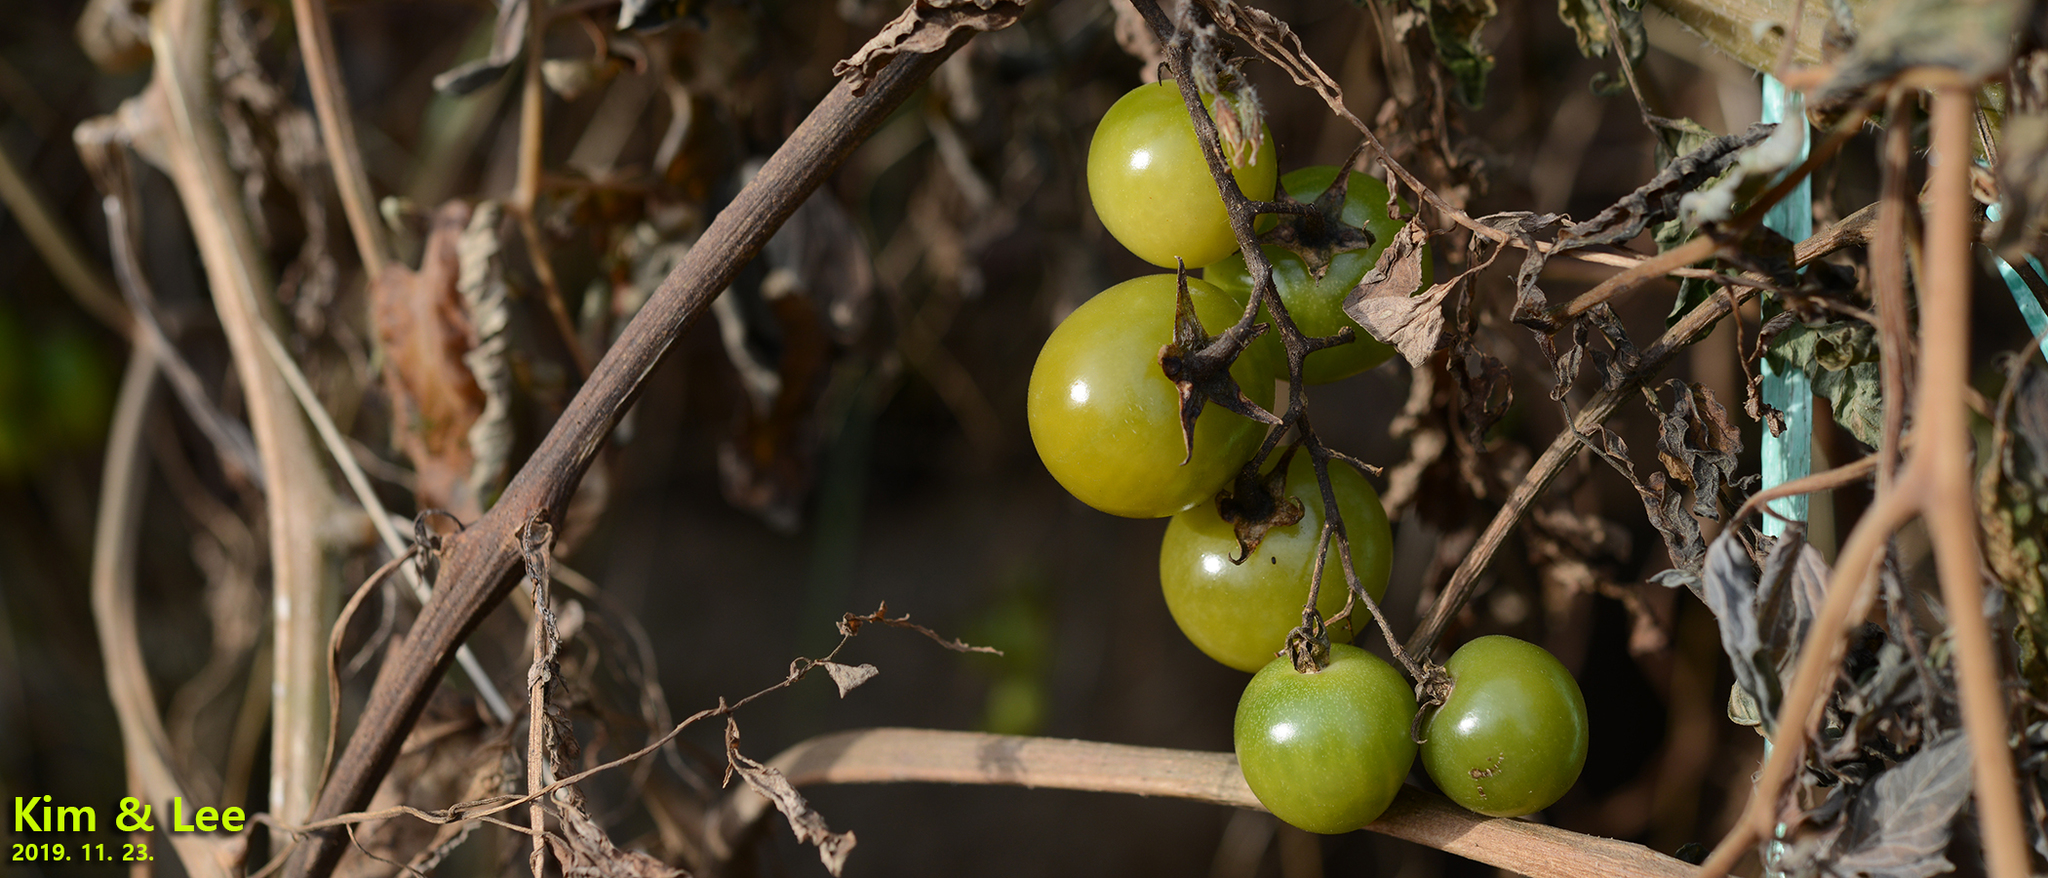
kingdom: Plantae
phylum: Tracheophyta
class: Magnoliopsida
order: Solanales
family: Solanaceae
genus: Solanum
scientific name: Solanum lycopersicum
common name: Garden tomato
